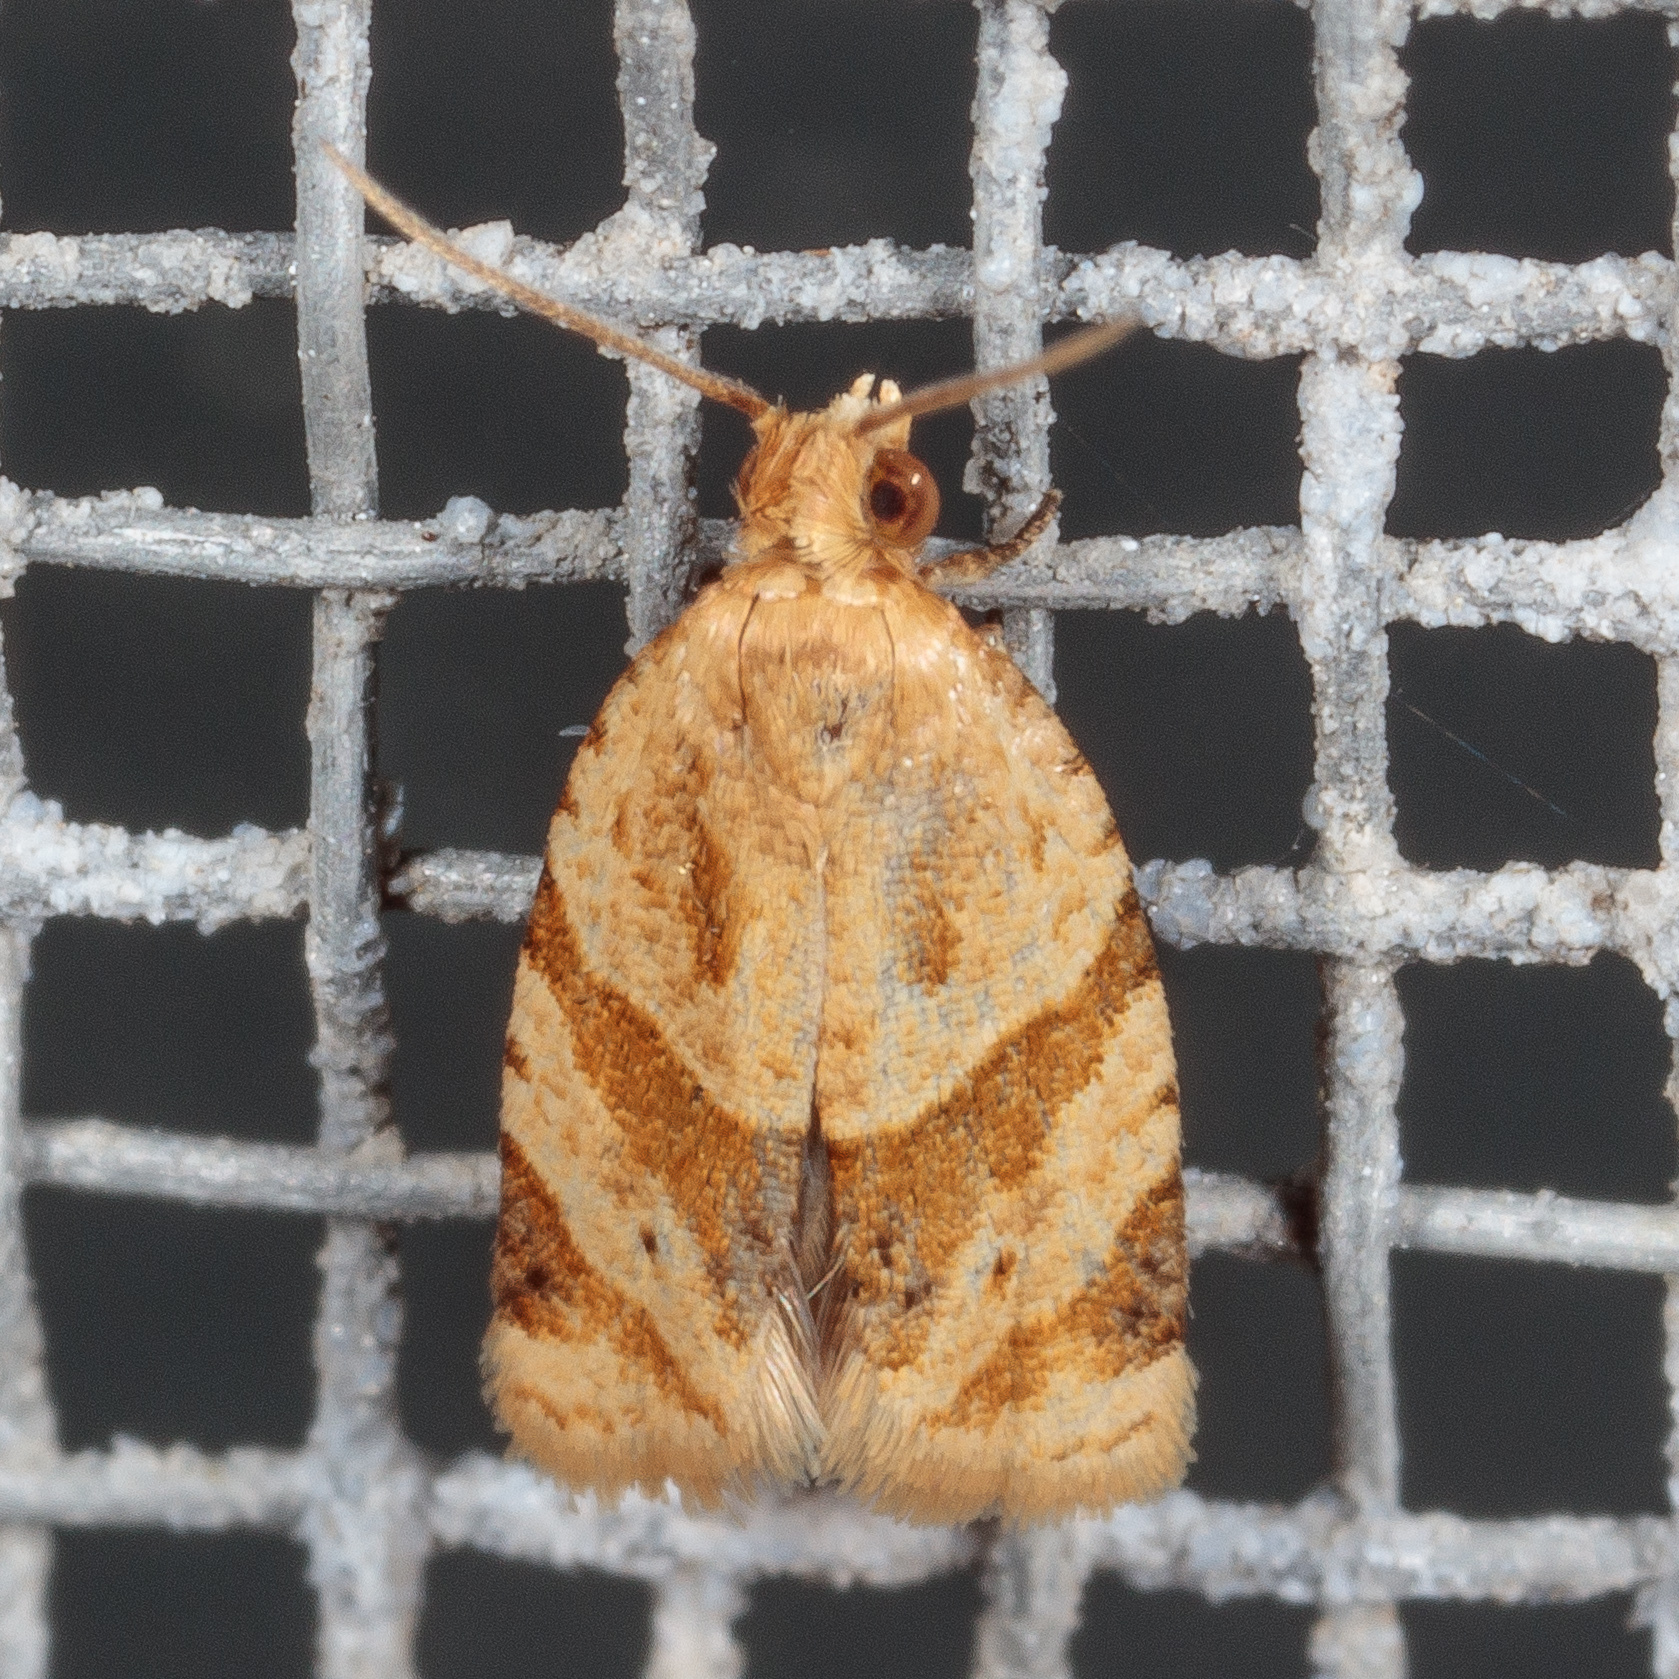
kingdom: Animalia
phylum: Arthropoda
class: Insecta
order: Lepidoptera
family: Tortricidae
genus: Clepsis
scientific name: Clepsis peritana
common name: Garden tortrix
